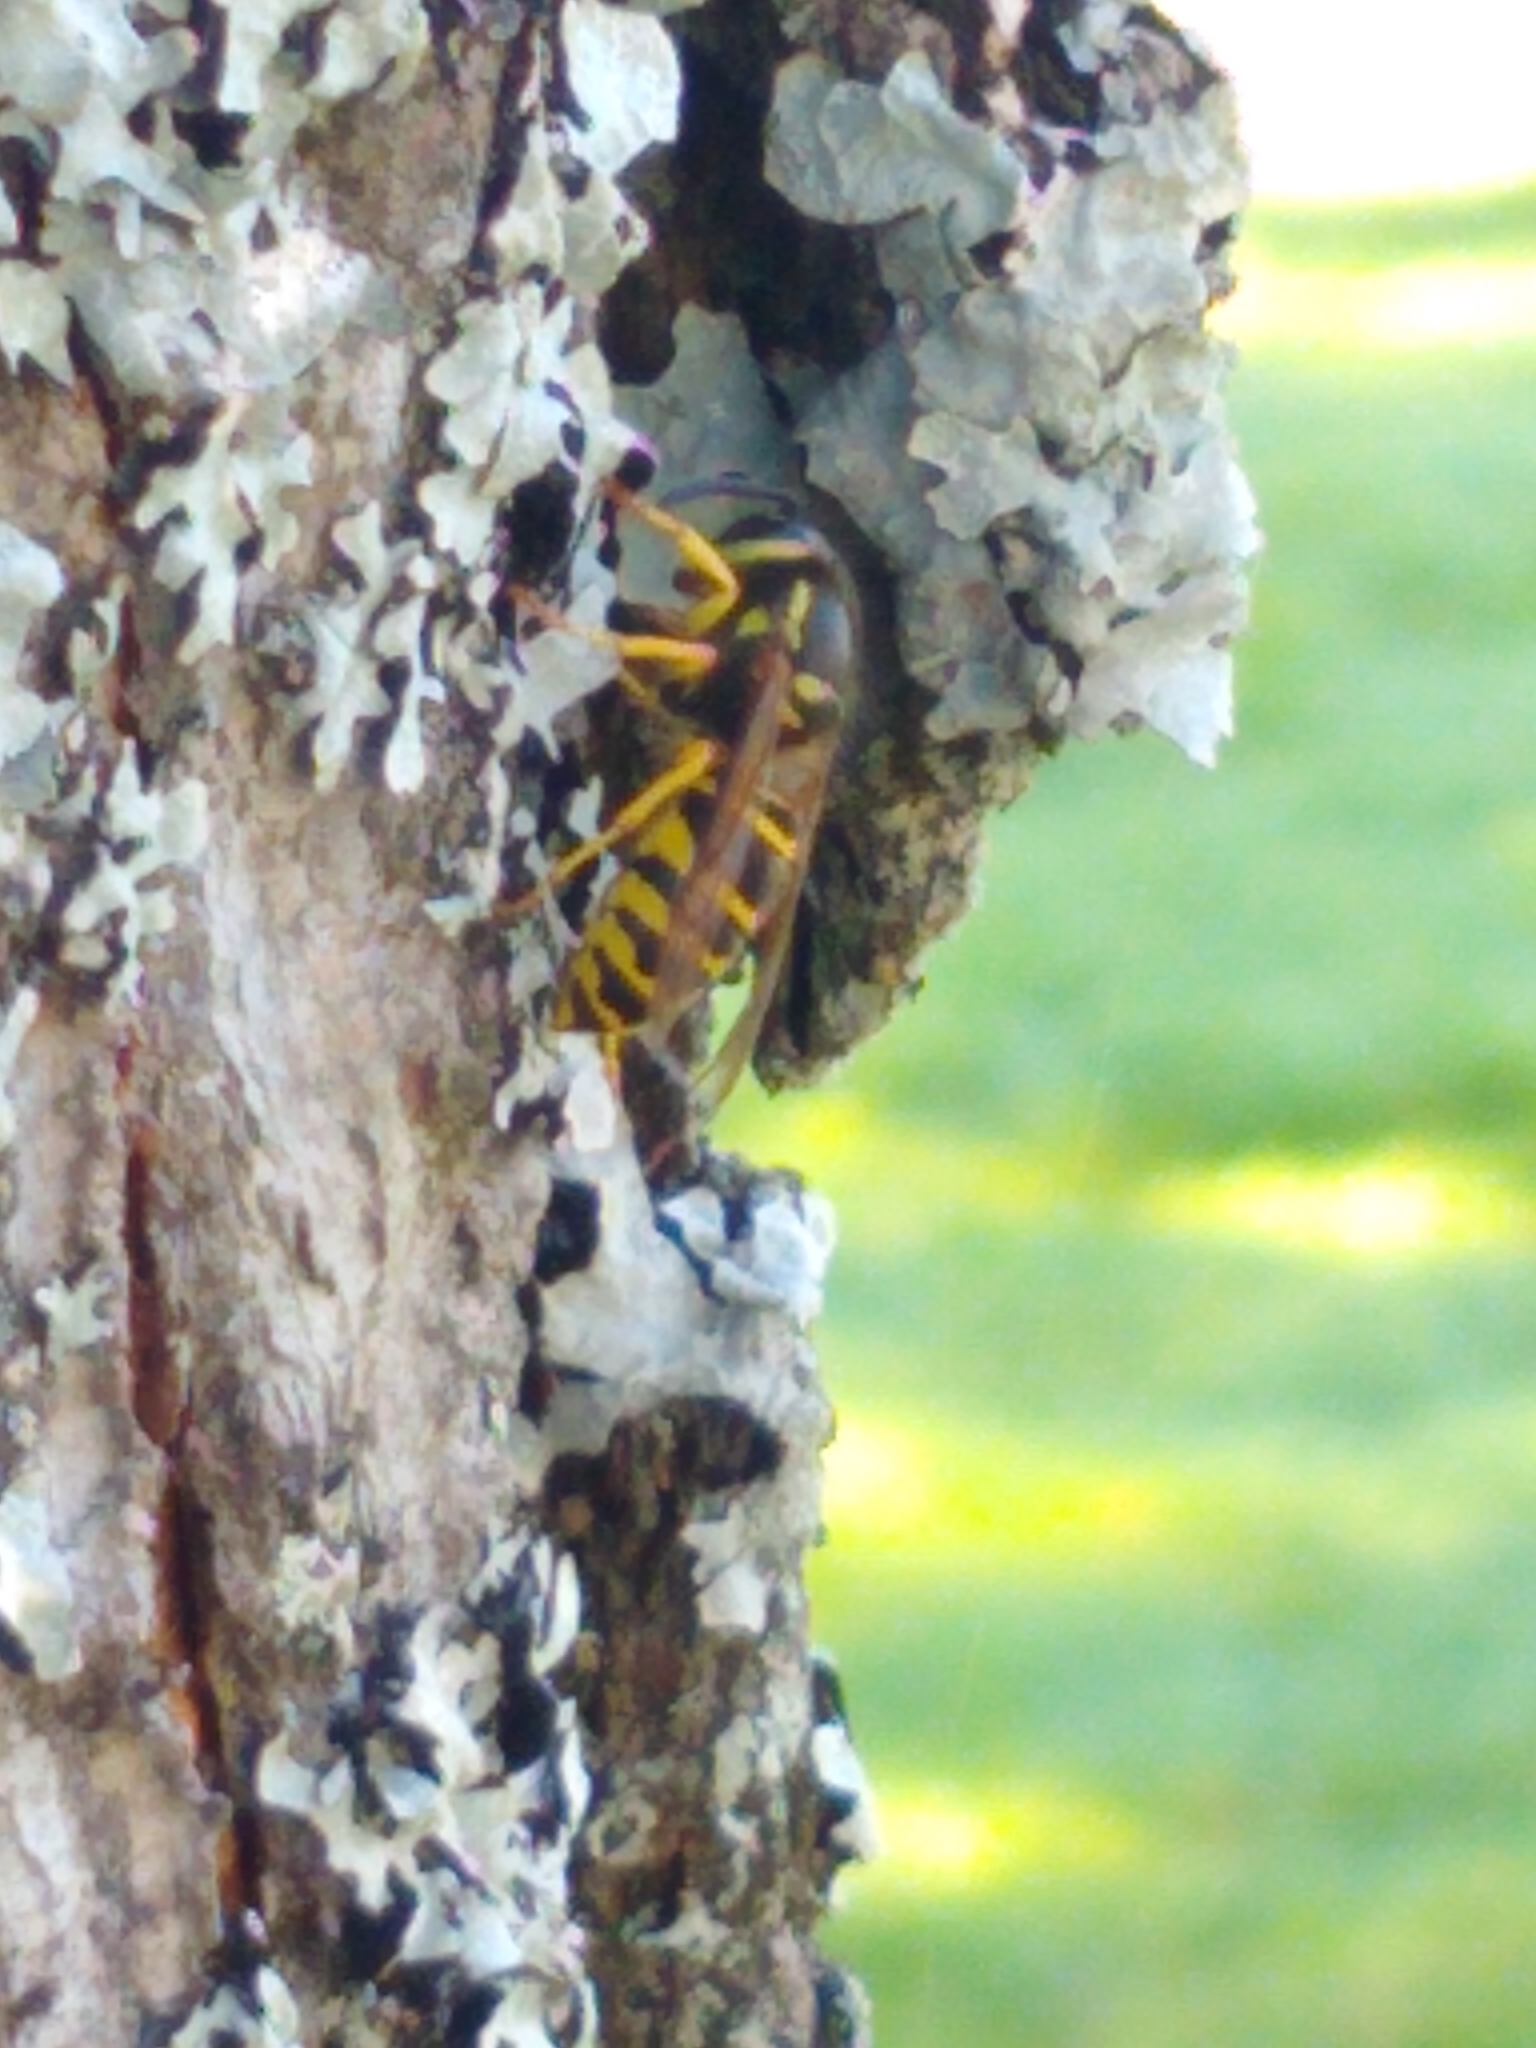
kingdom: Animalia
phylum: Arthropoda
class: Insecta
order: Hymenoptera
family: Vespidae
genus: Vespula
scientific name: Vespula maculifrons
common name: Eastern yellowjacket
